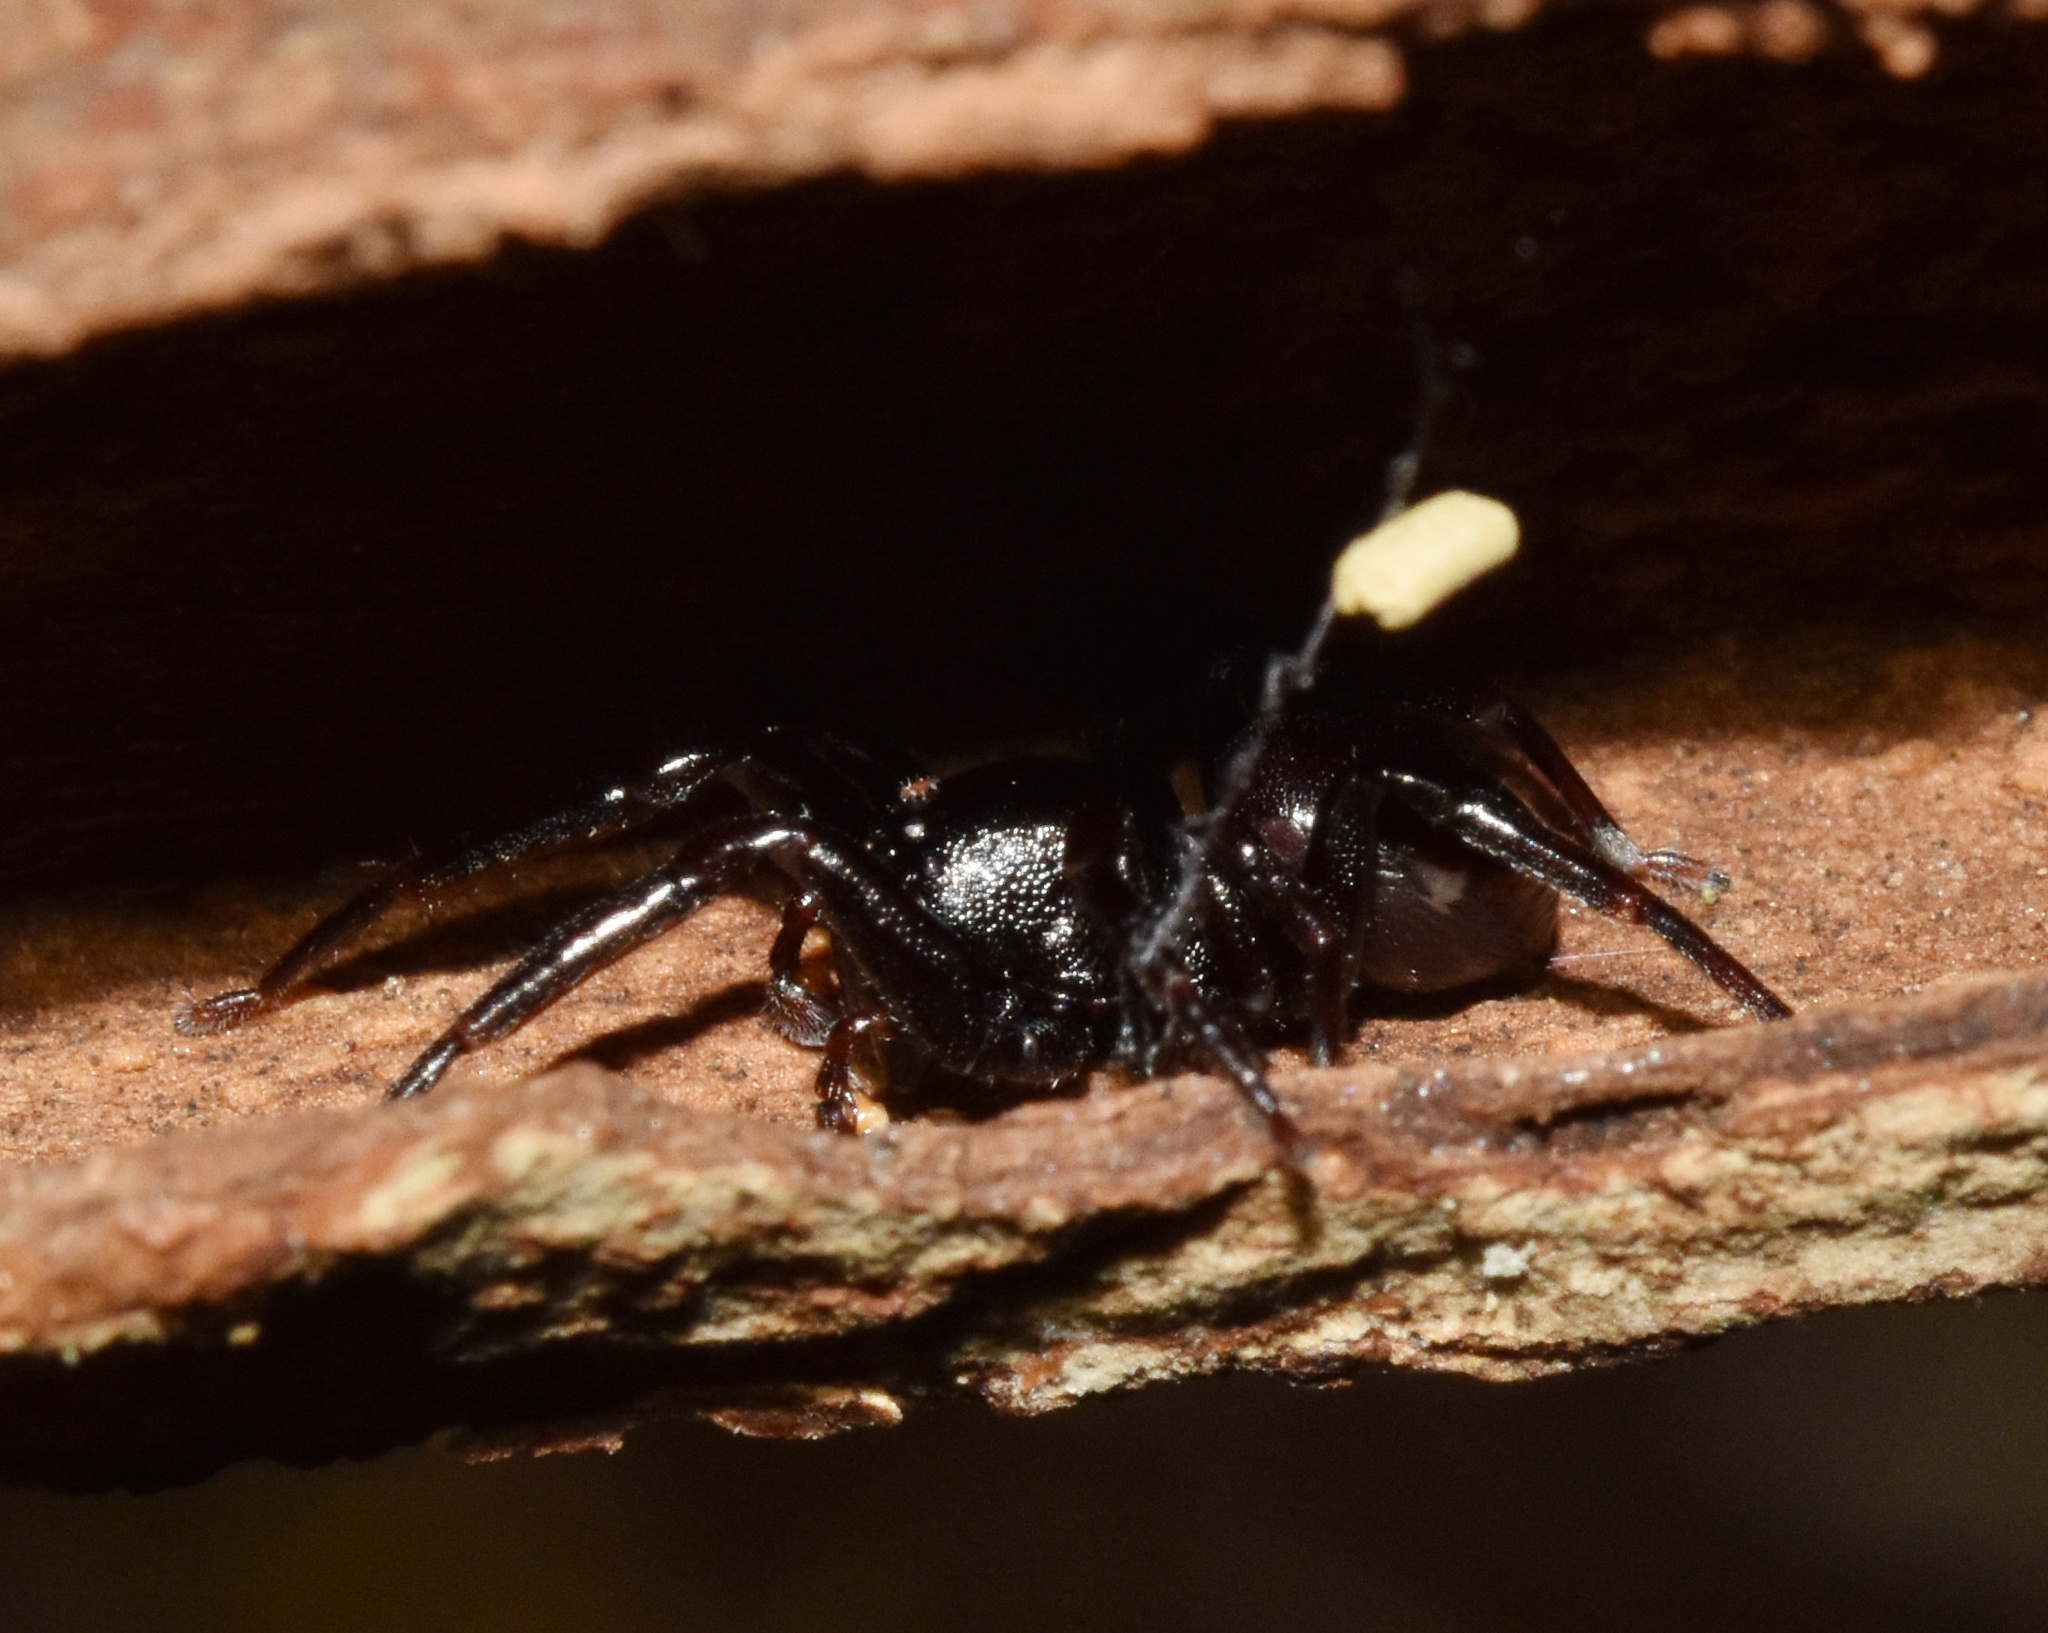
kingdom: Animalia
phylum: Arthropoda
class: Arachnida
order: Araneae
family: Corinnidae
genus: Pronophaea
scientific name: Pronophaea natalica
